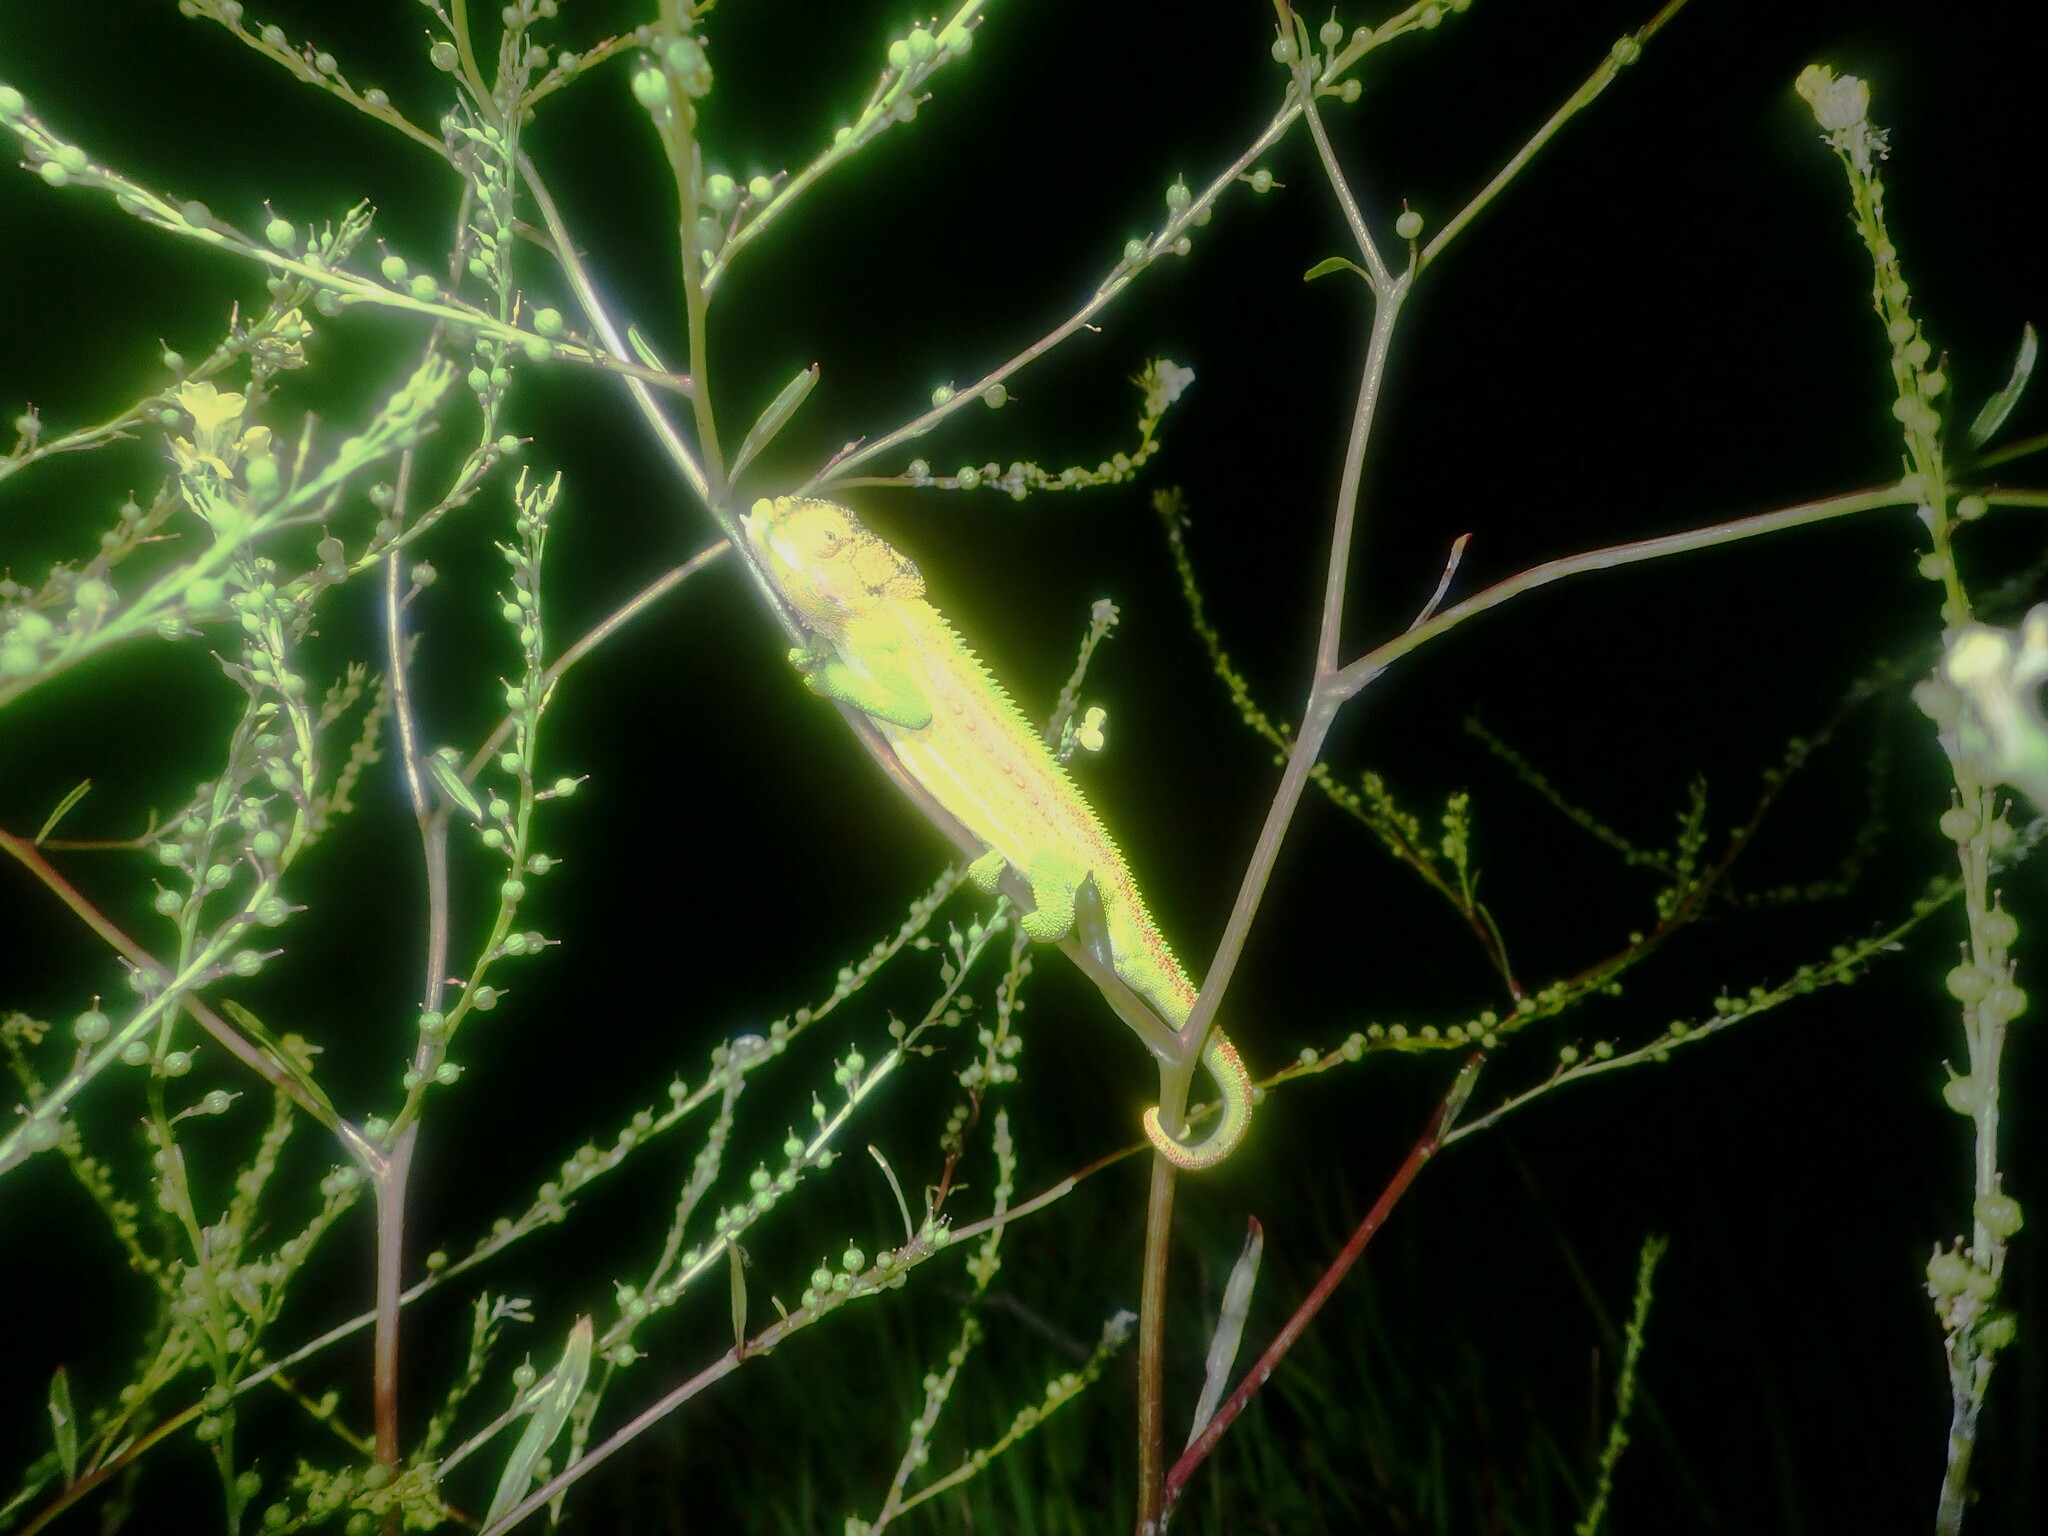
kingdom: Animalia
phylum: Chordata
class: Squamata
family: Chamaeleonidae
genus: Bradypodion
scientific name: Bradypodion pumilum
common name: Cape dwarf chameleon
